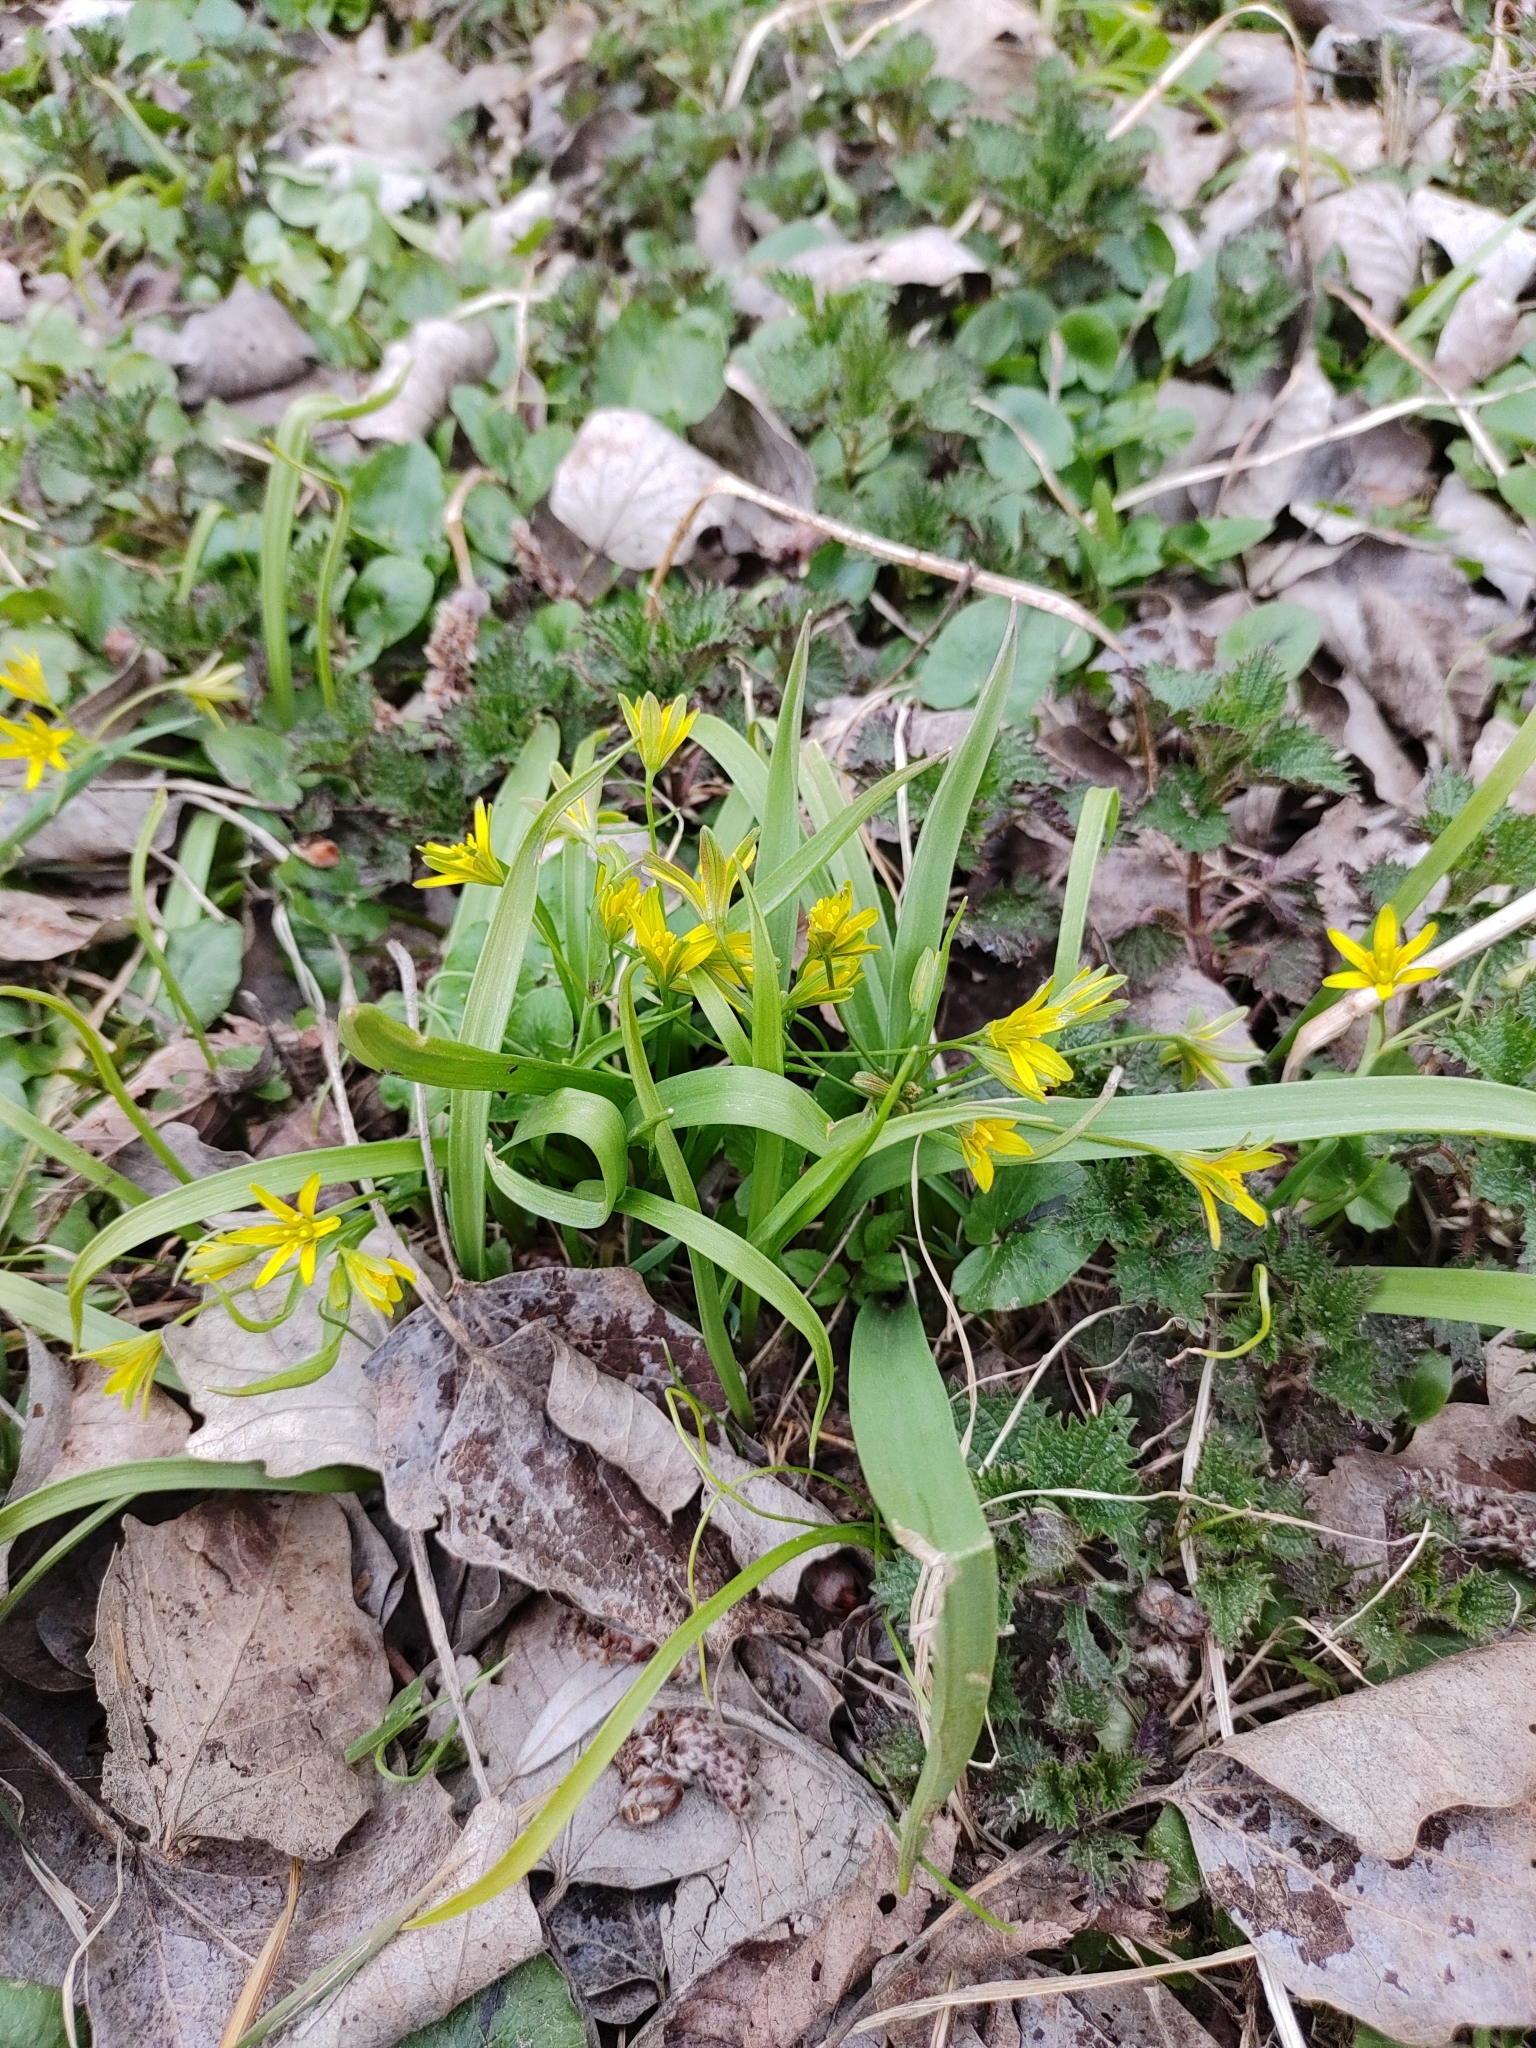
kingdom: Plantae
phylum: Tracheophyta
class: Liliopsida
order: Liliales
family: Liliaceae
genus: Gagea
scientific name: Gagea lutea
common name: Yellow star-of-bethlehem
